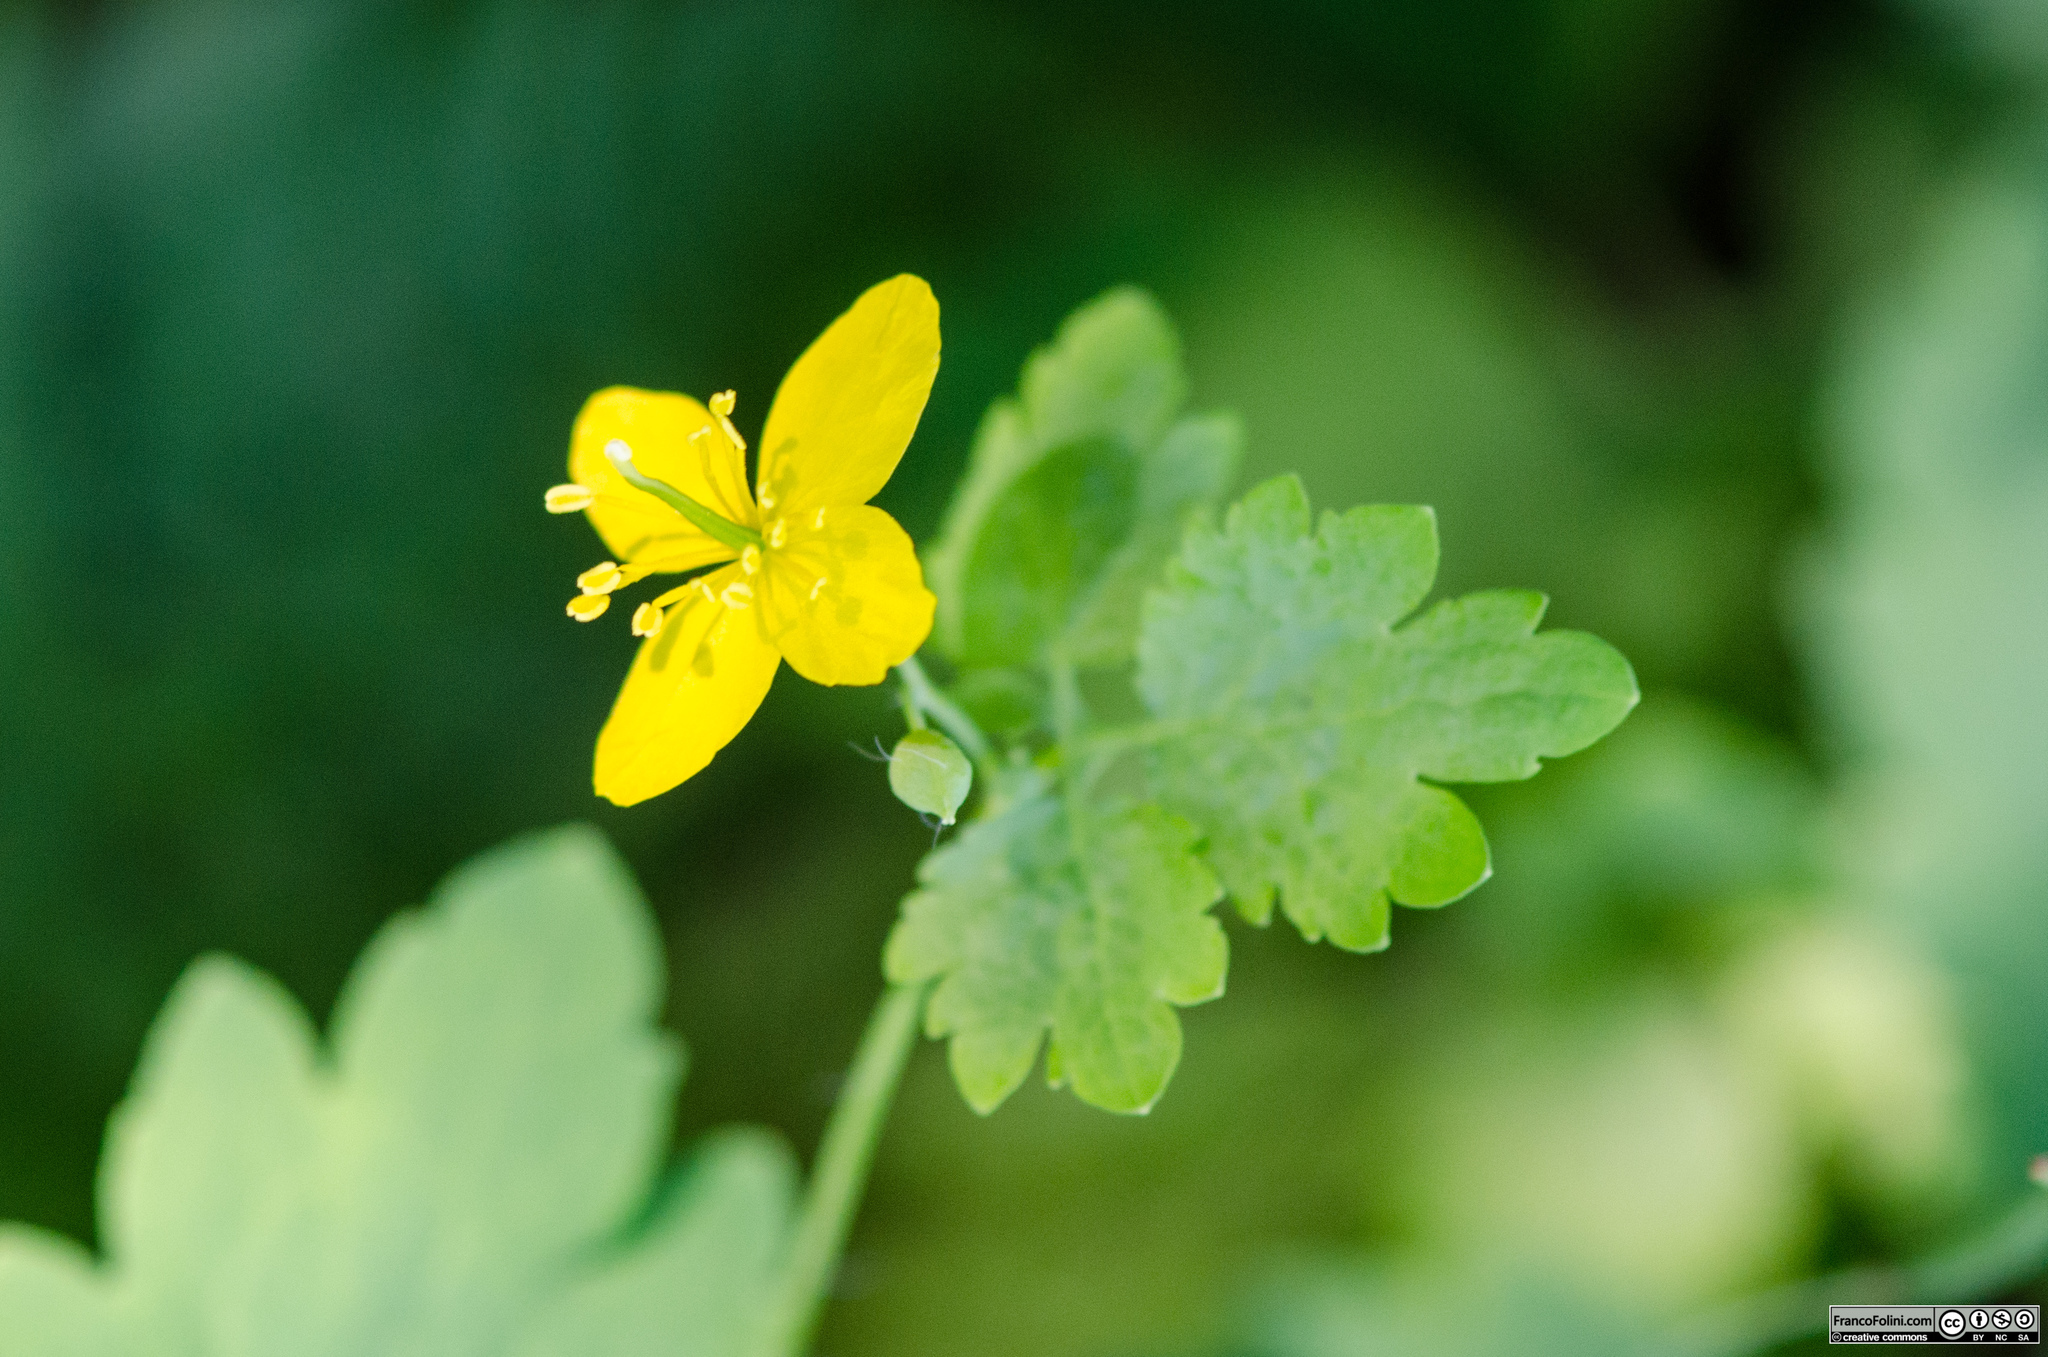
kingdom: Plantae
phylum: Tracheophyta
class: Magnoliopsida
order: Ranunculales
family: Papaveraceae
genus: Chelidonium
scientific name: Chelidonium majus
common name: Greater celandine
